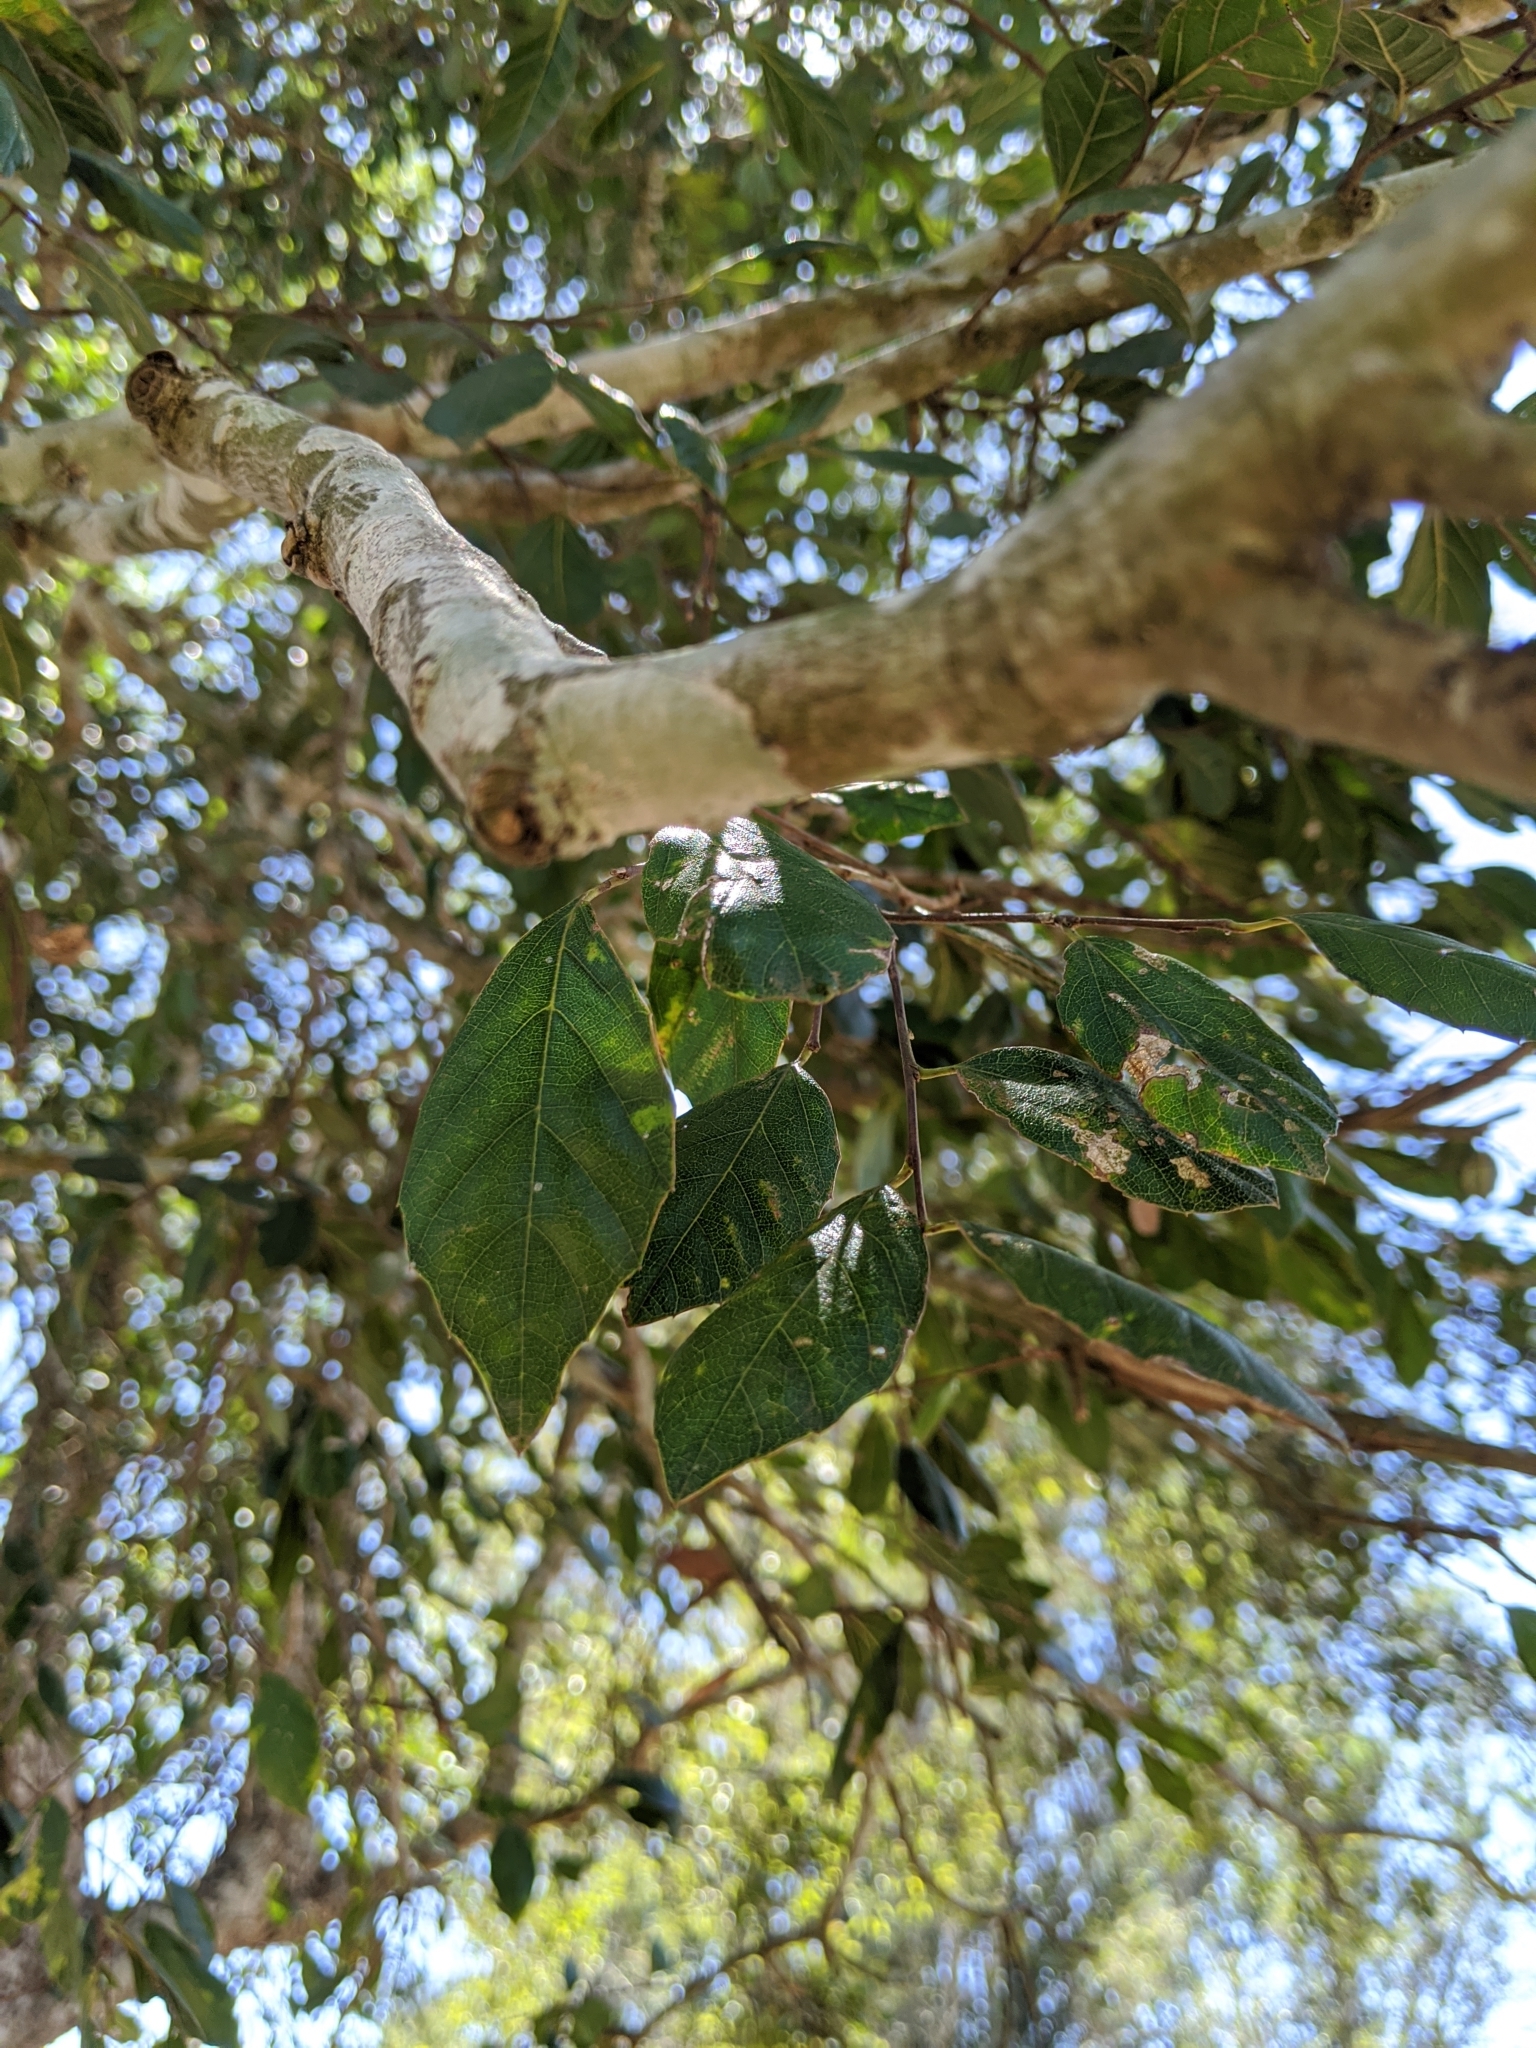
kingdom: Plantae
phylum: Tracheophyta
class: Magnoliopsida
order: Rosales
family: Cannabaceae
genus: Aphananthe
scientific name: Aphananthe philippinensis
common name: Wild holly
